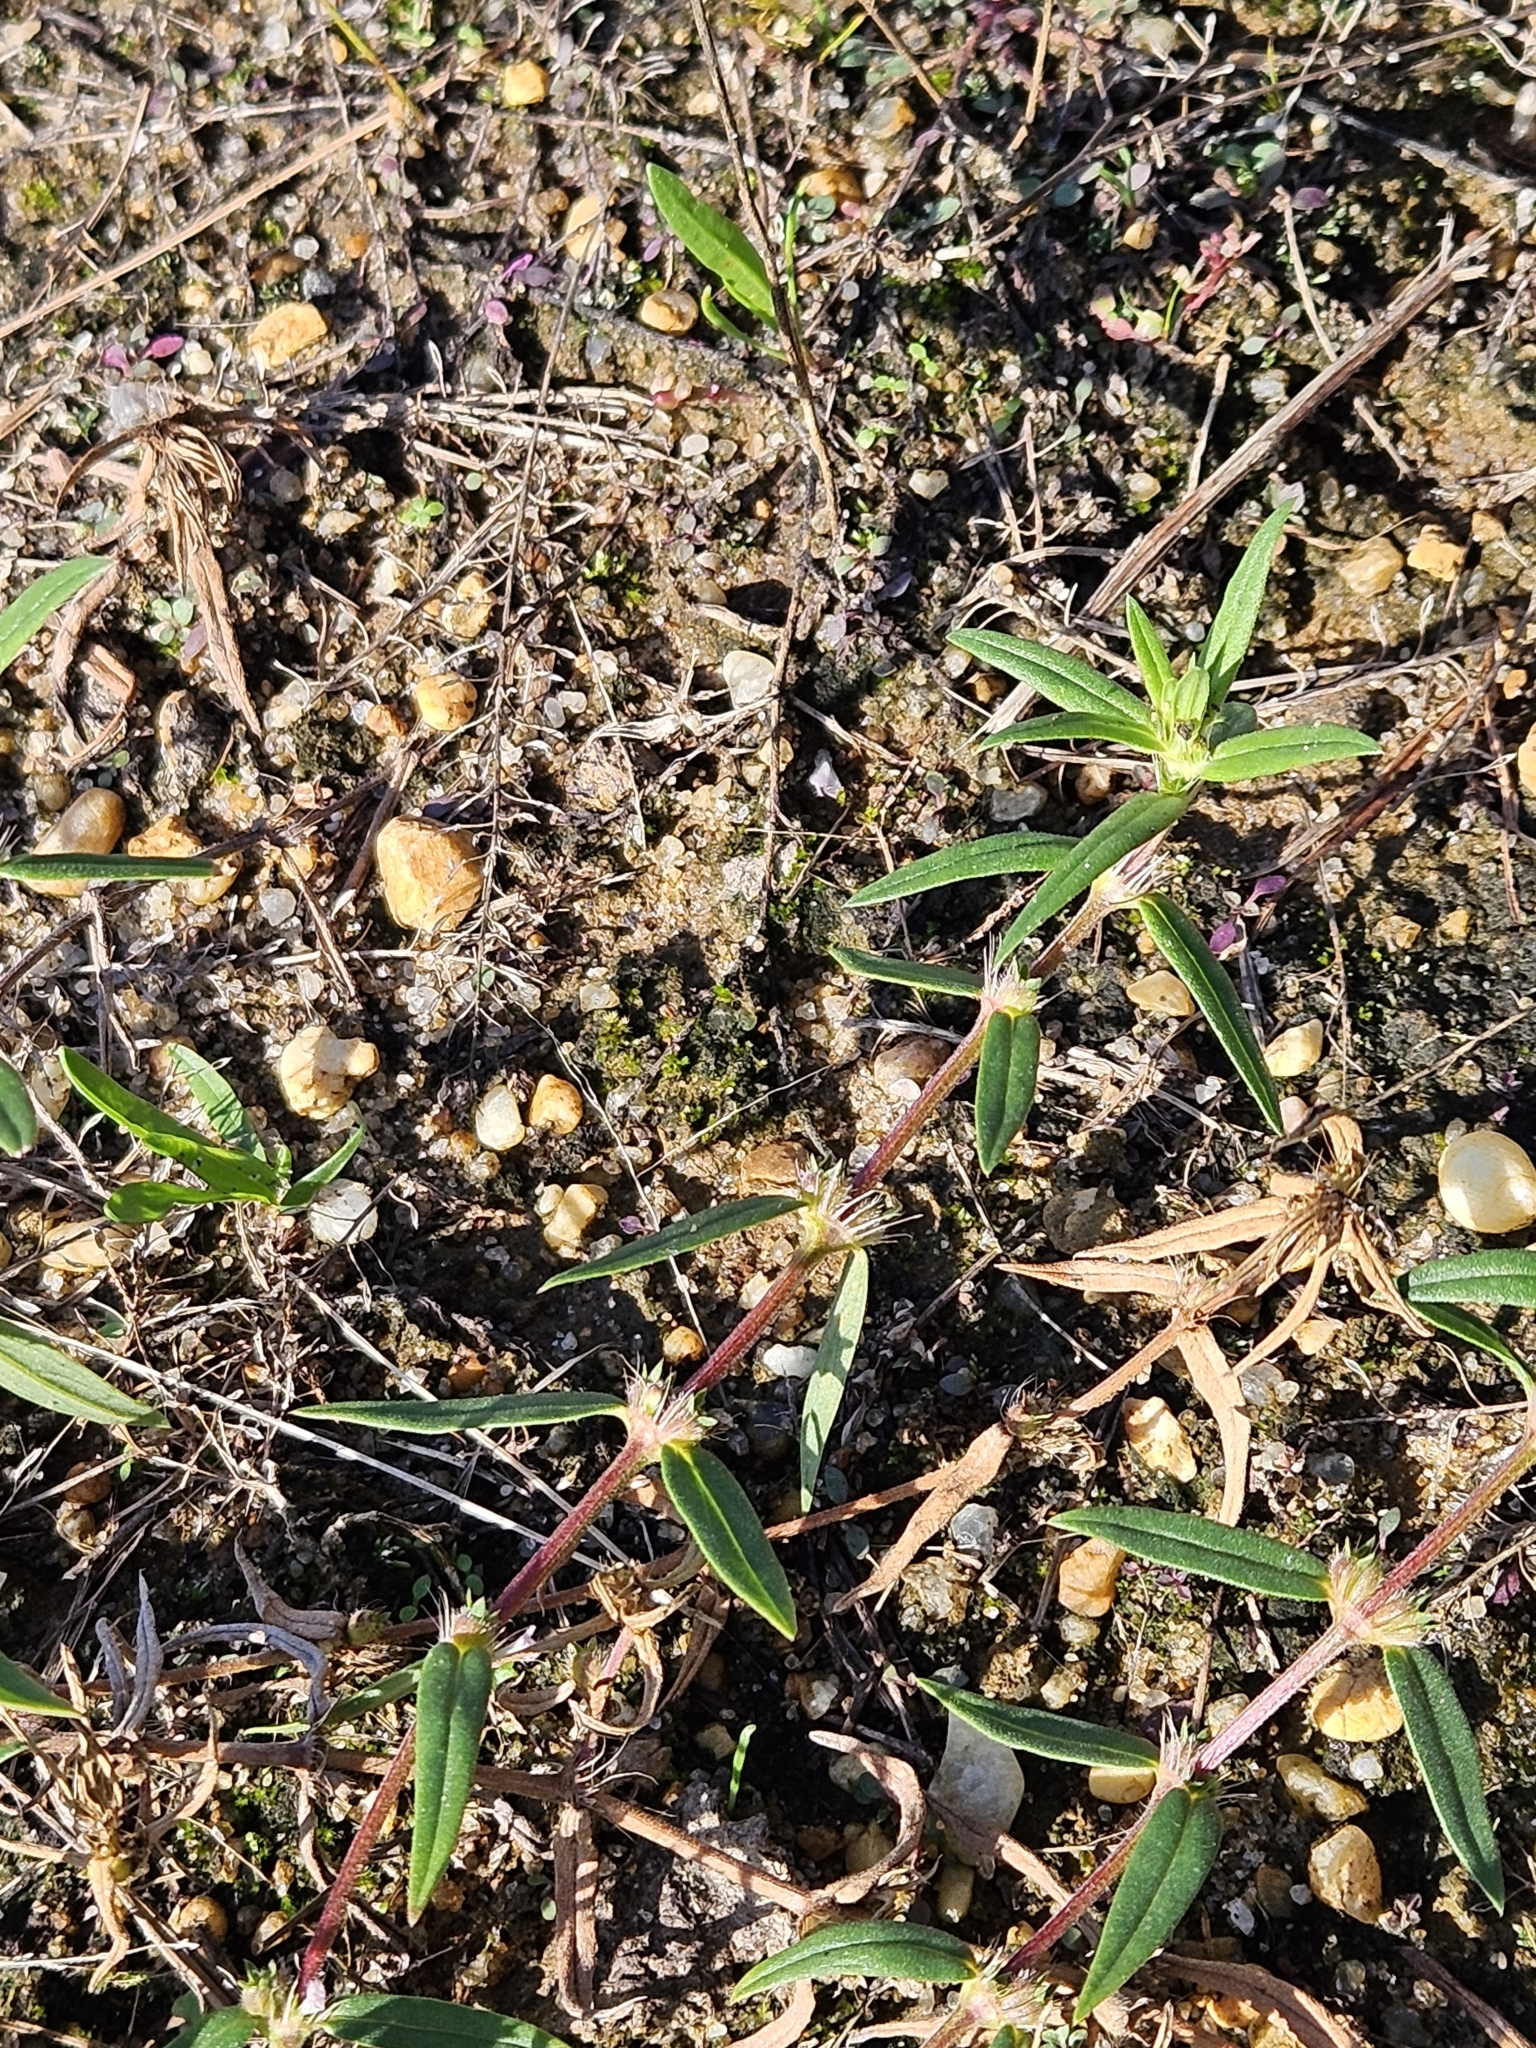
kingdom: Plantae
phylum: Tracheophyta
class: Magnoliopsida
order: Gentianales
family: Rubiaceae
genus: Hexasepalum
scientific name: Hexasepalum teres
